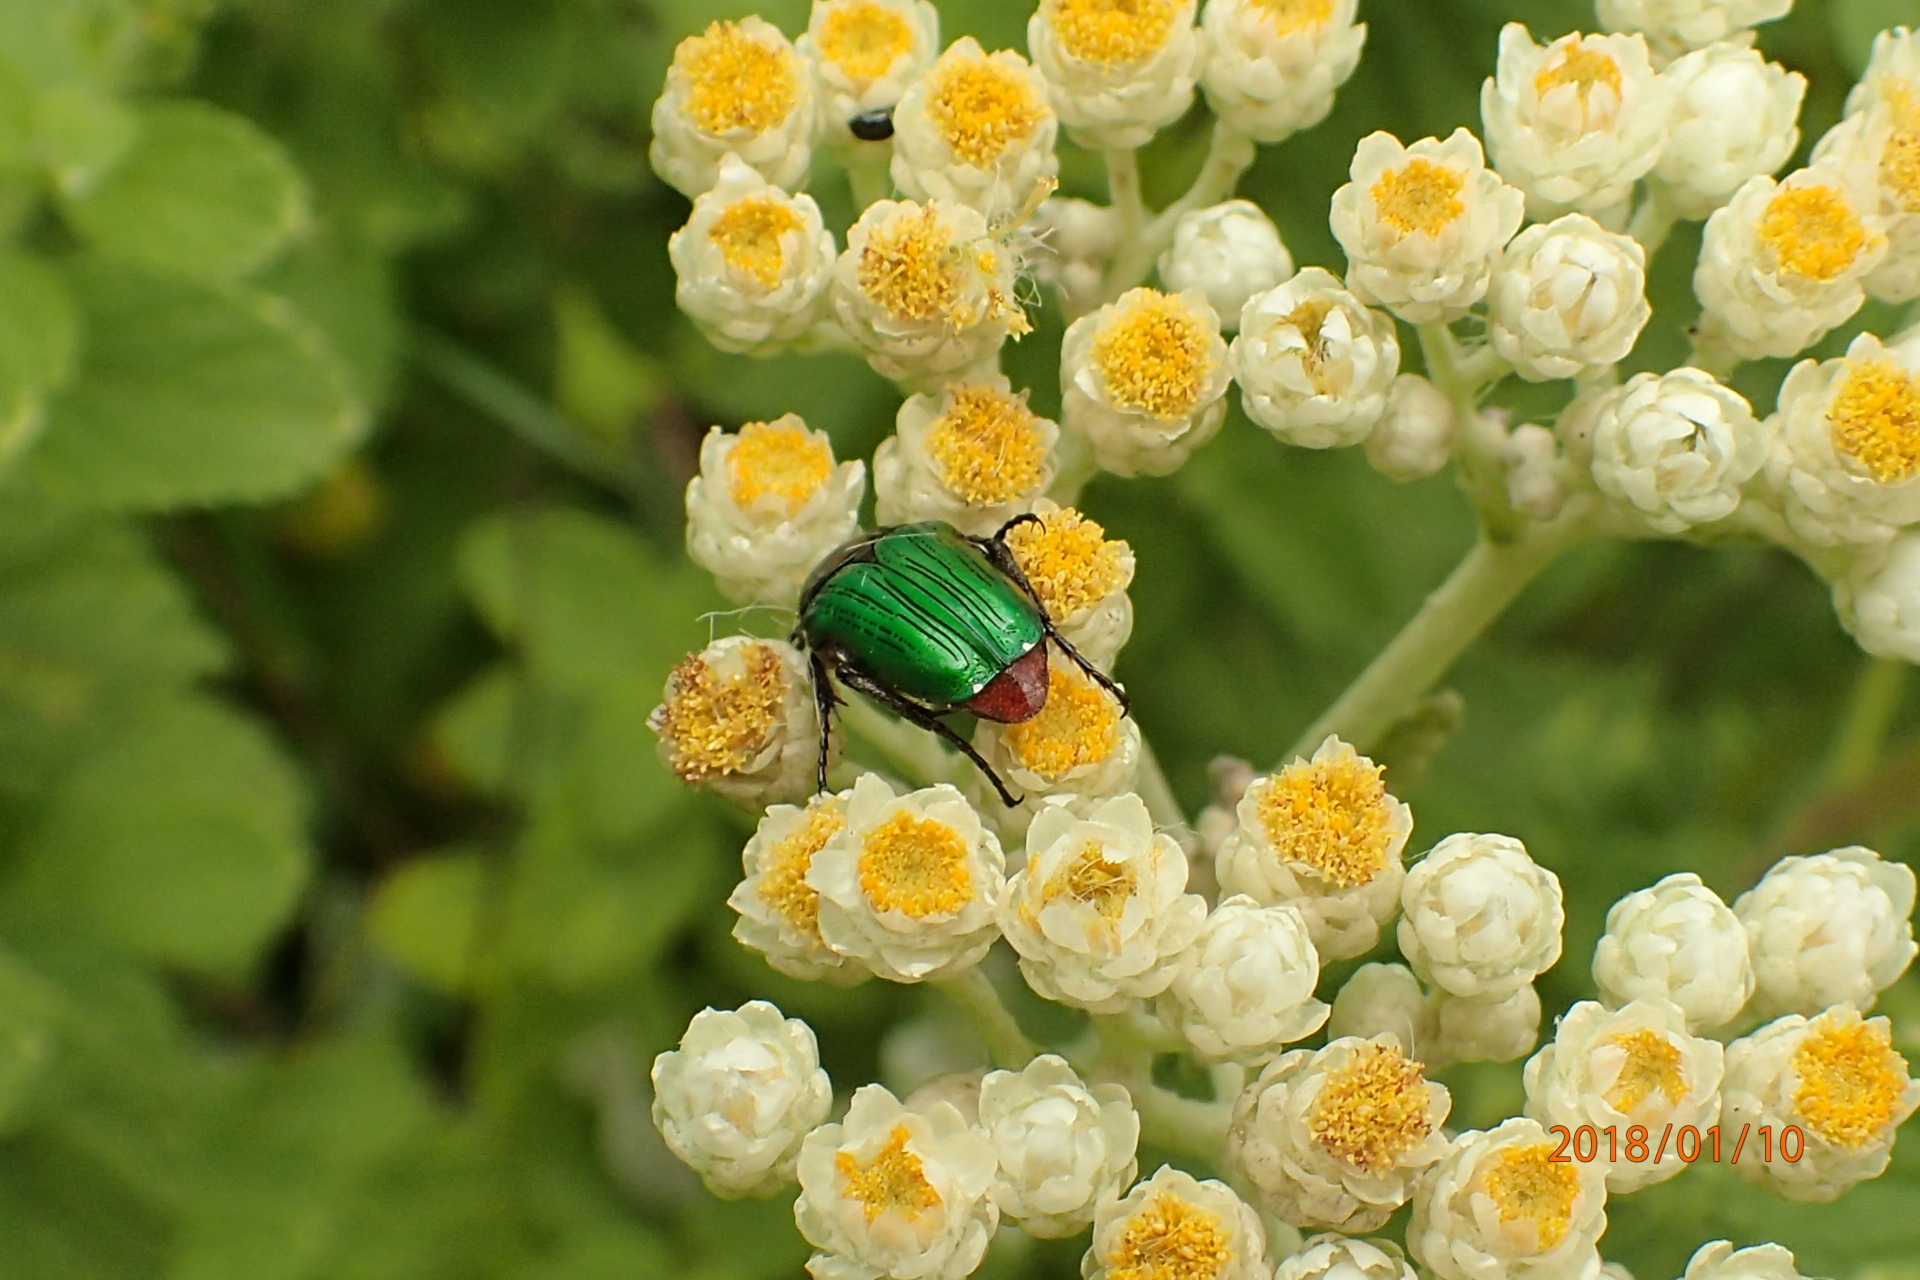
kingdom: Animalia
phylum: Arthropoda
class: Insecta
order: Coleoptera
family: Scarabaeidae
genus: Leucocelis
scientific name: Leucocelis haemorrhoidalis
